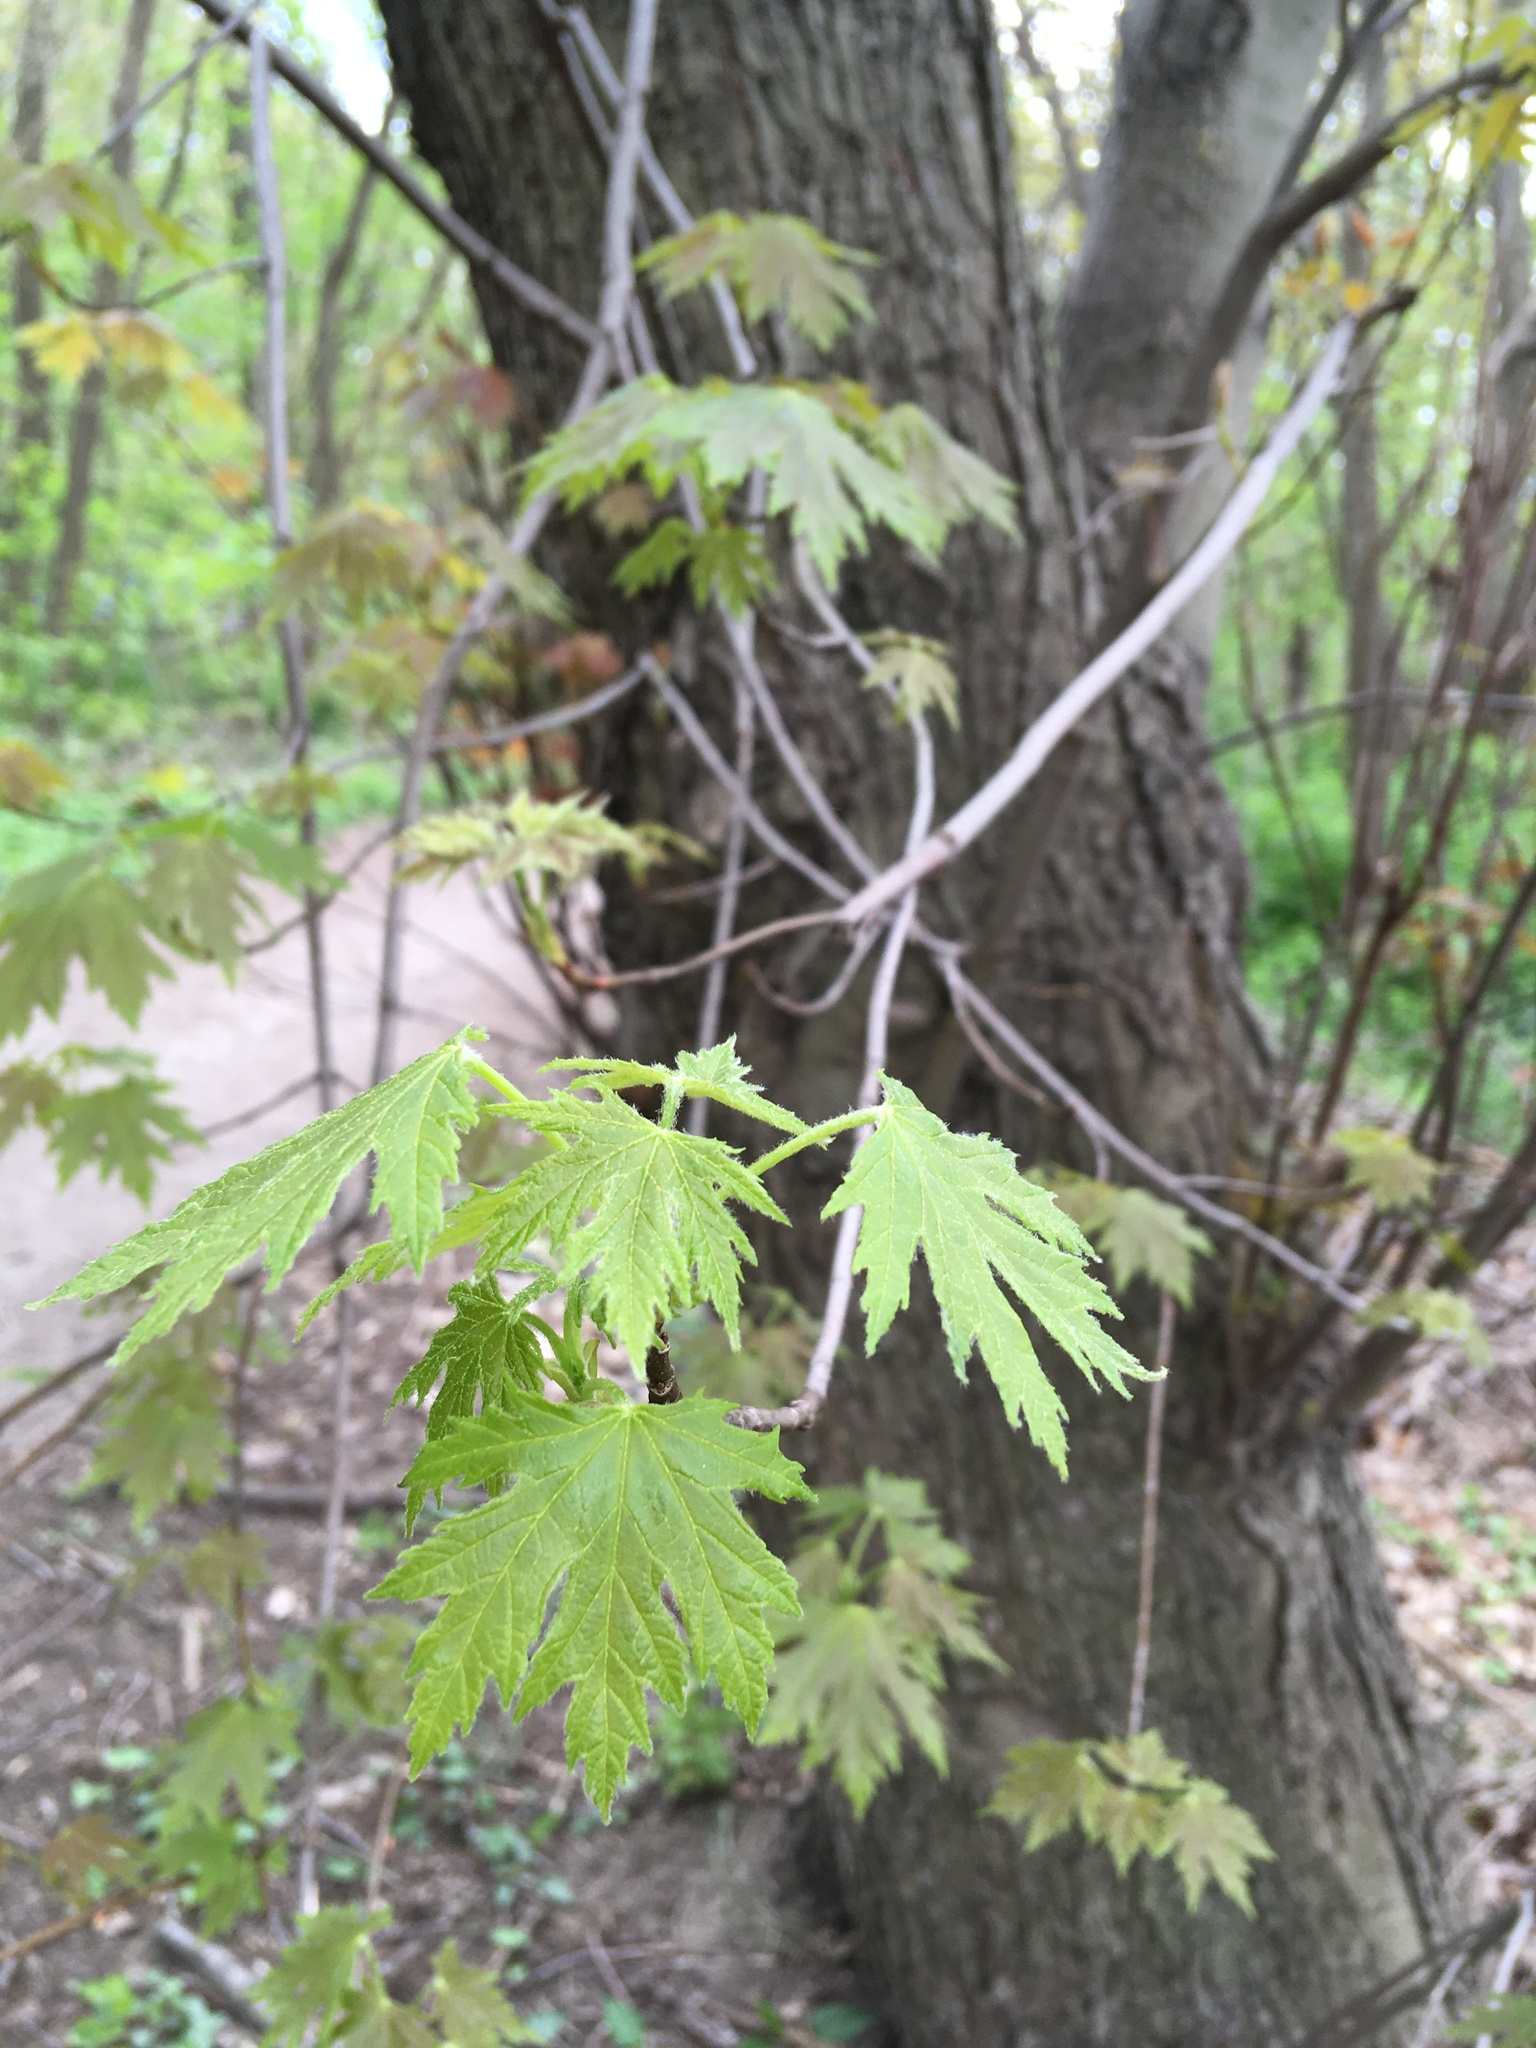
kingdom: Plantae
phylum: Tracheophyta
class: Magnoliopsida
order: Sapindales
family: Sapindaceae
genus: Acer
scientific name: Acer saccharinum
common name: Silver maple
